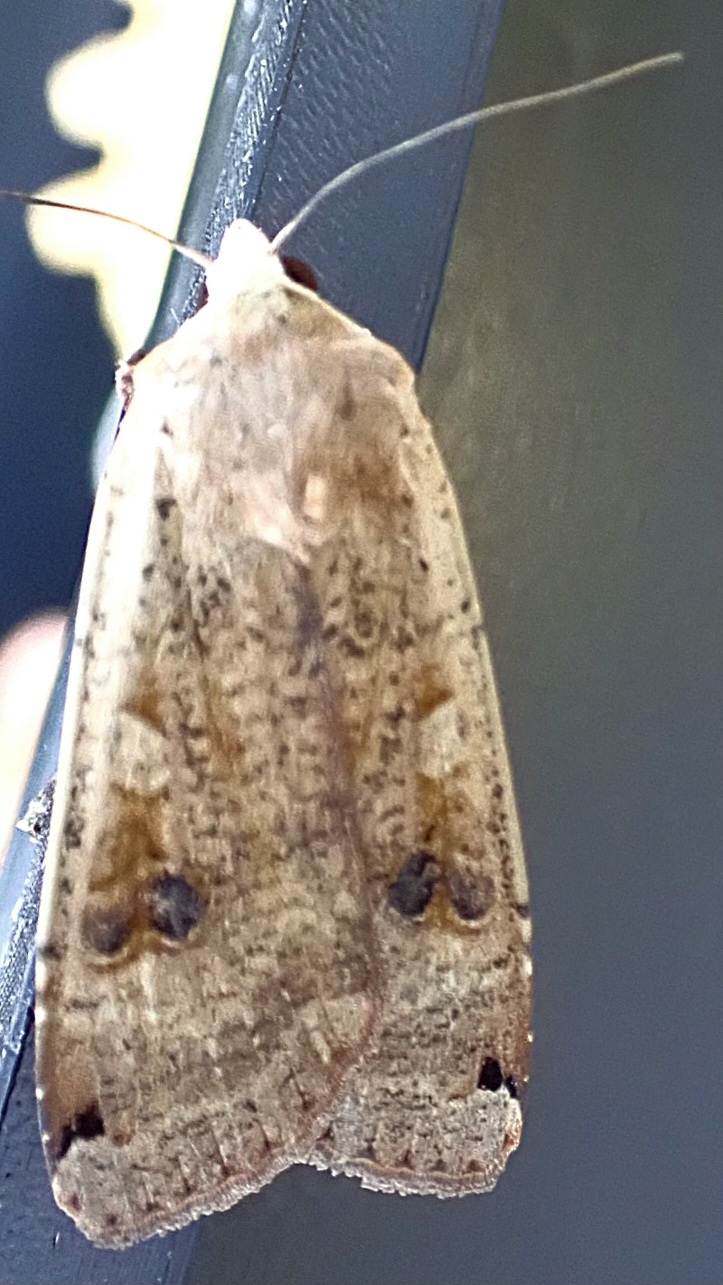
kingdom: Animalia
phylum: Arthropoda
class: Insecta
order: Lepidoptera
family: Noctuidae
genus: Noctua
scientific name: Noctua pronuba
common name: Large yellow underwing
